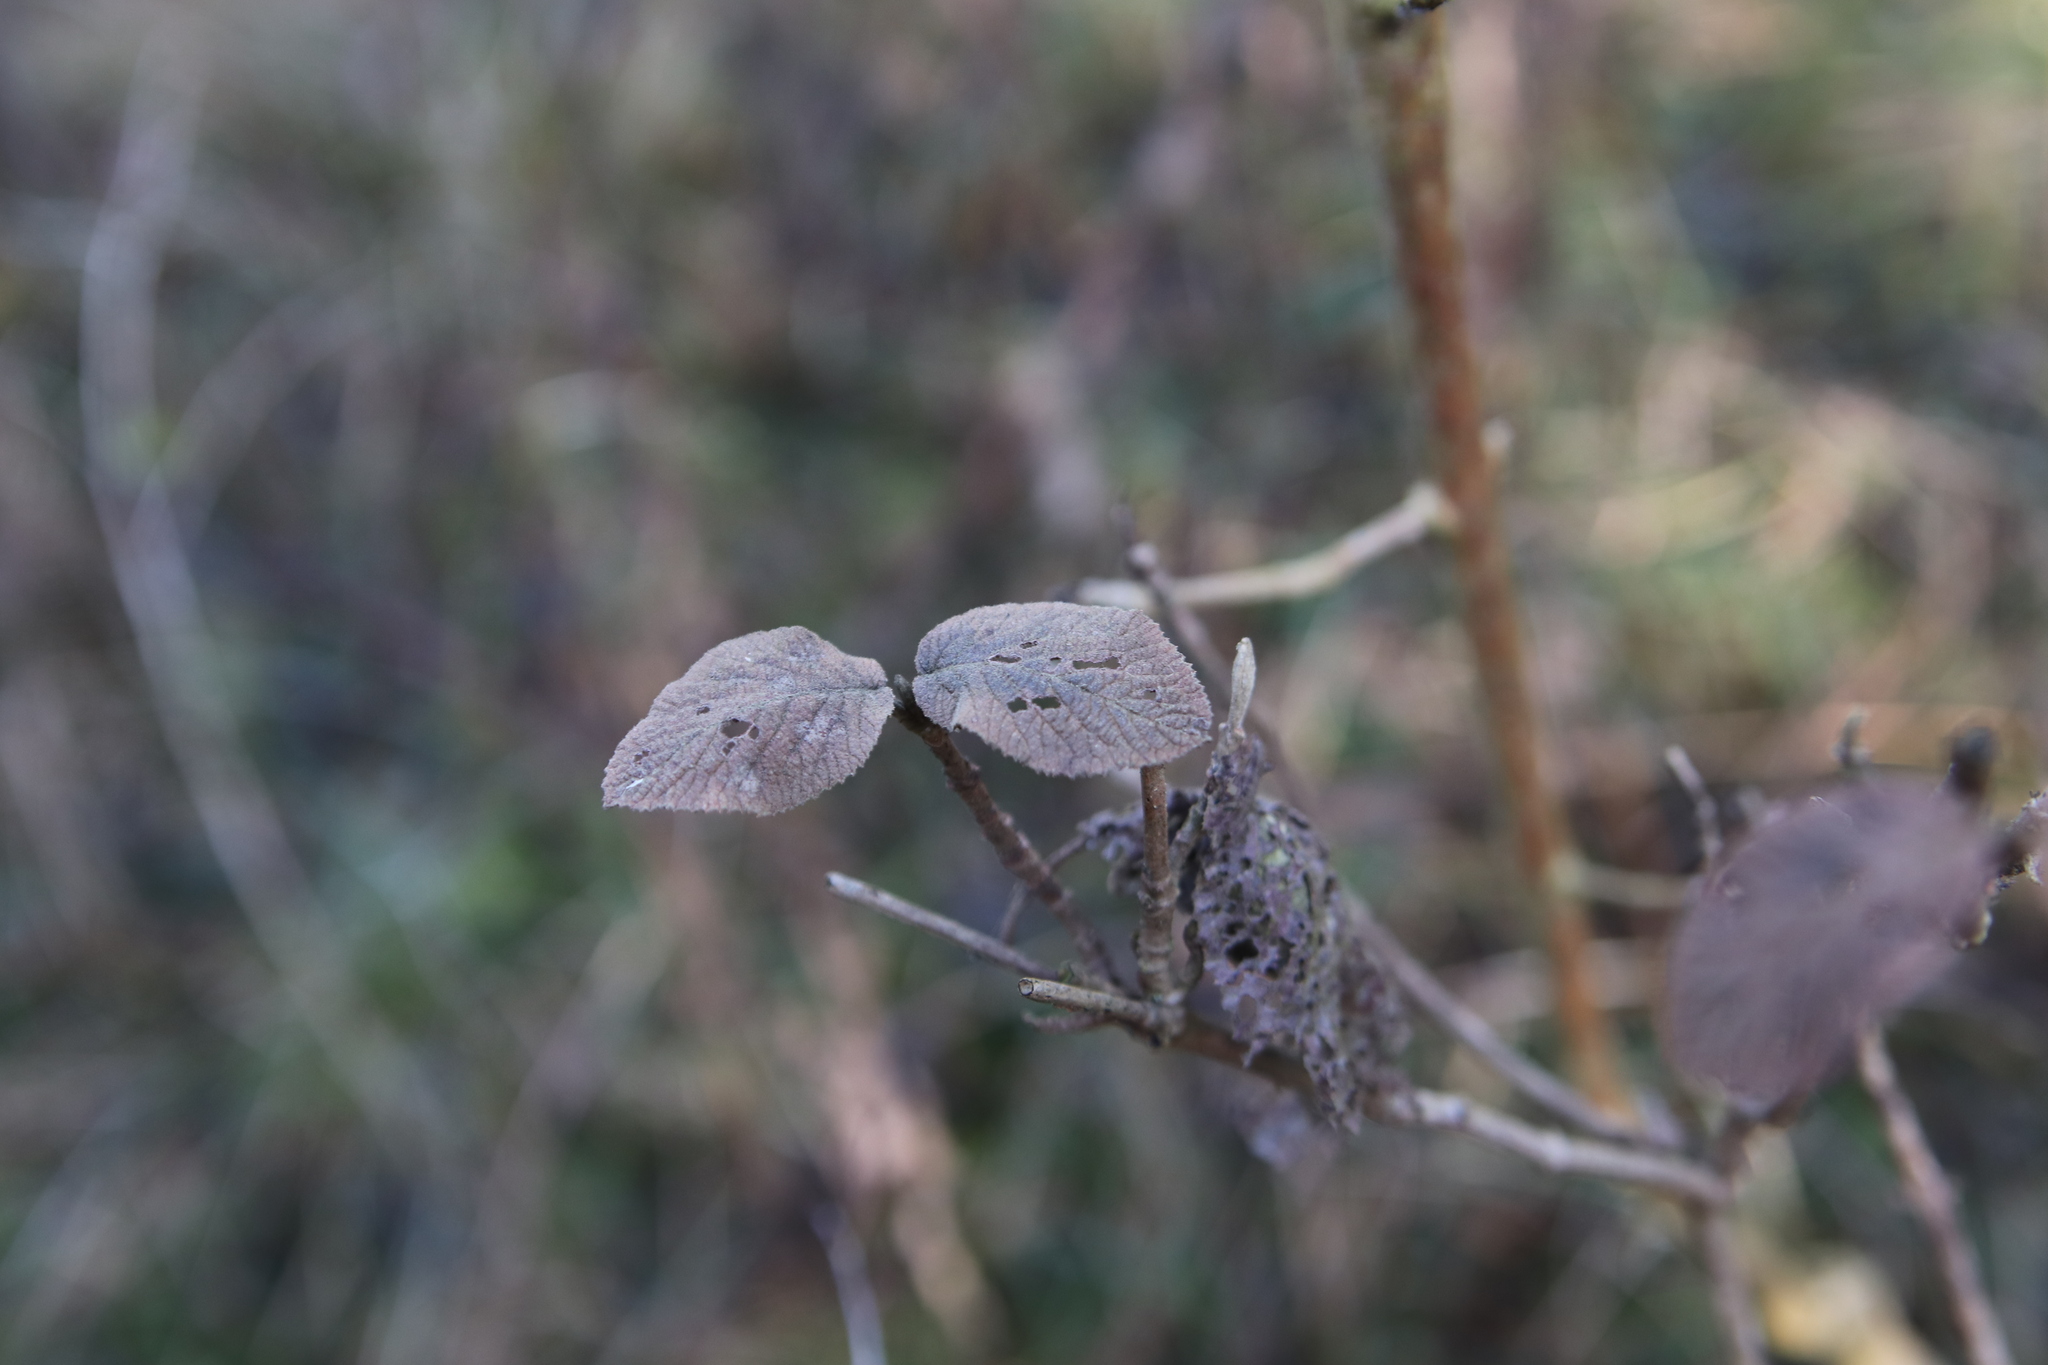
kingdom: Plantae
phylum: Tracheophyta
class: Magnoliopsida
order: Dipsacales
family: Viburnaceae
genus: Viburnum
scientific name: Viburnum lantana
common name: Wayfaring tree
